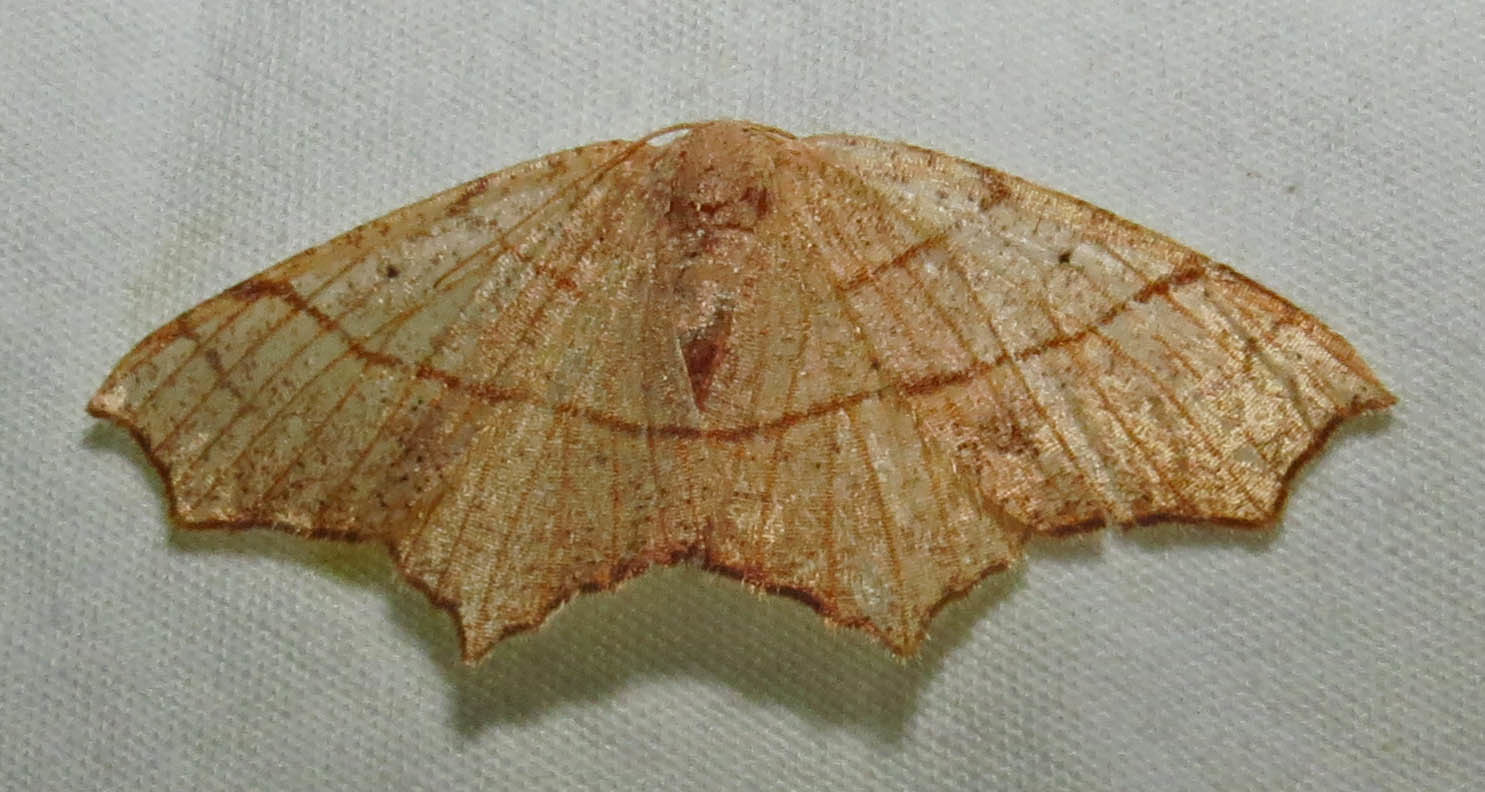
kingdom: Animalia
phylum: Arthropoda
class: Insecta
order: Lepidoptera
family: Geometridae
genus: Besma
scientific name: Besma quercivoraria
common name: Oak besma
